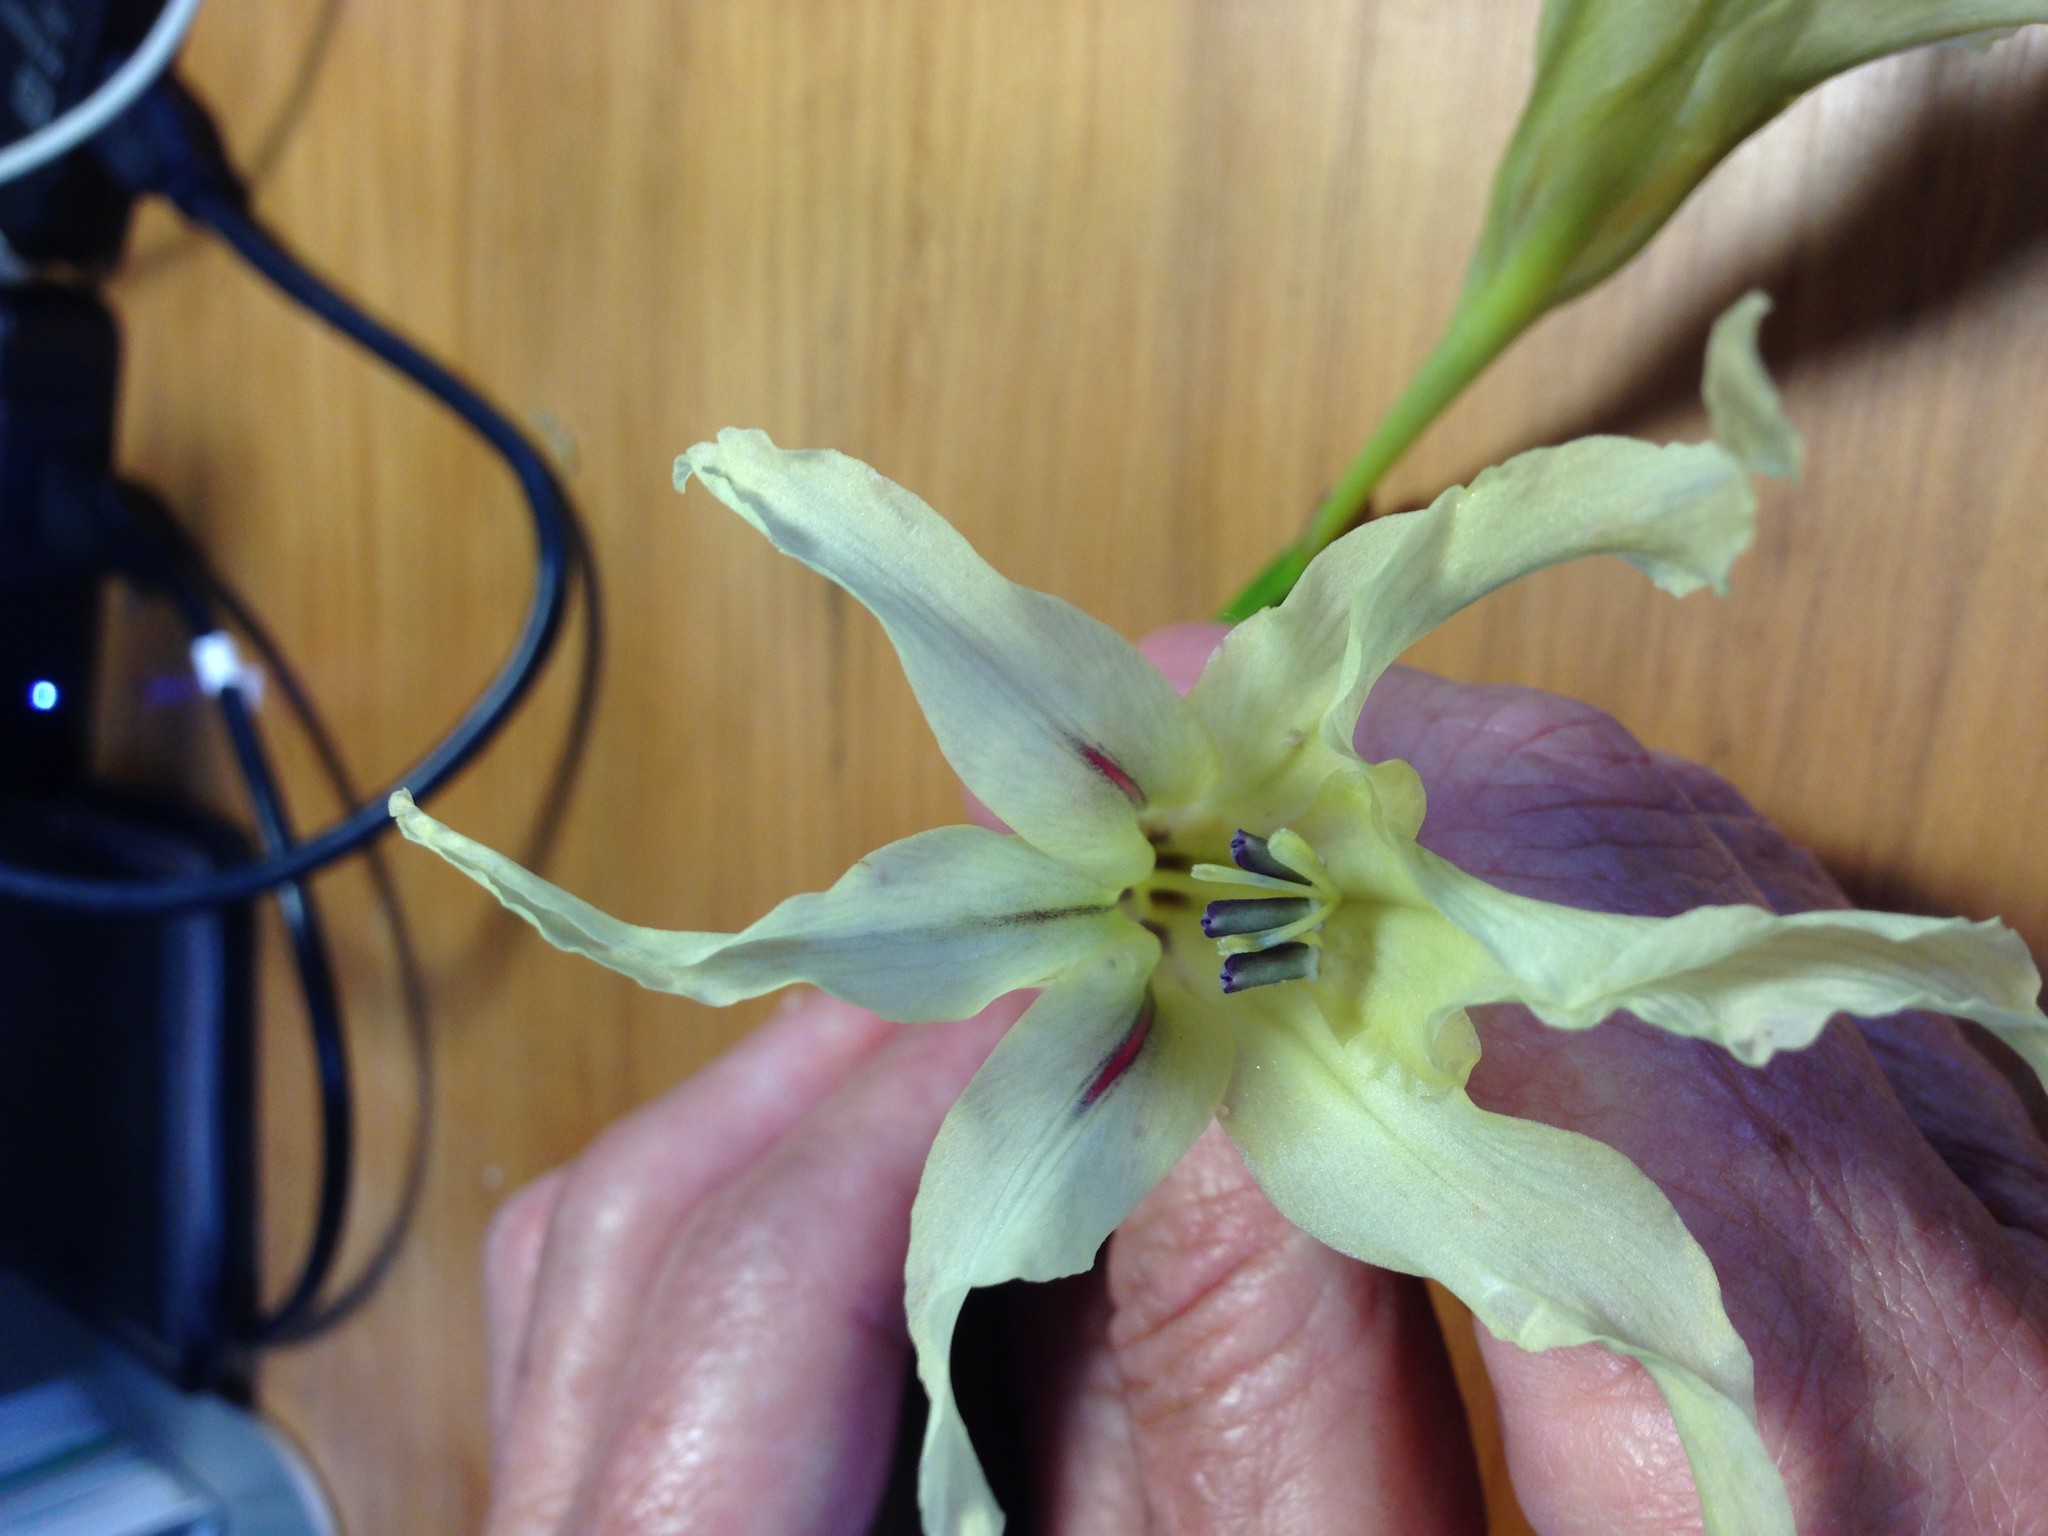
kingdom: Plantae
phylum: Tracheophyta
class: Liliopsida
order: Asparagales
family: Iridaceae
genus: Gladiolus
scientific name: Gladiolus undulatus
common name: Large painted-lady
